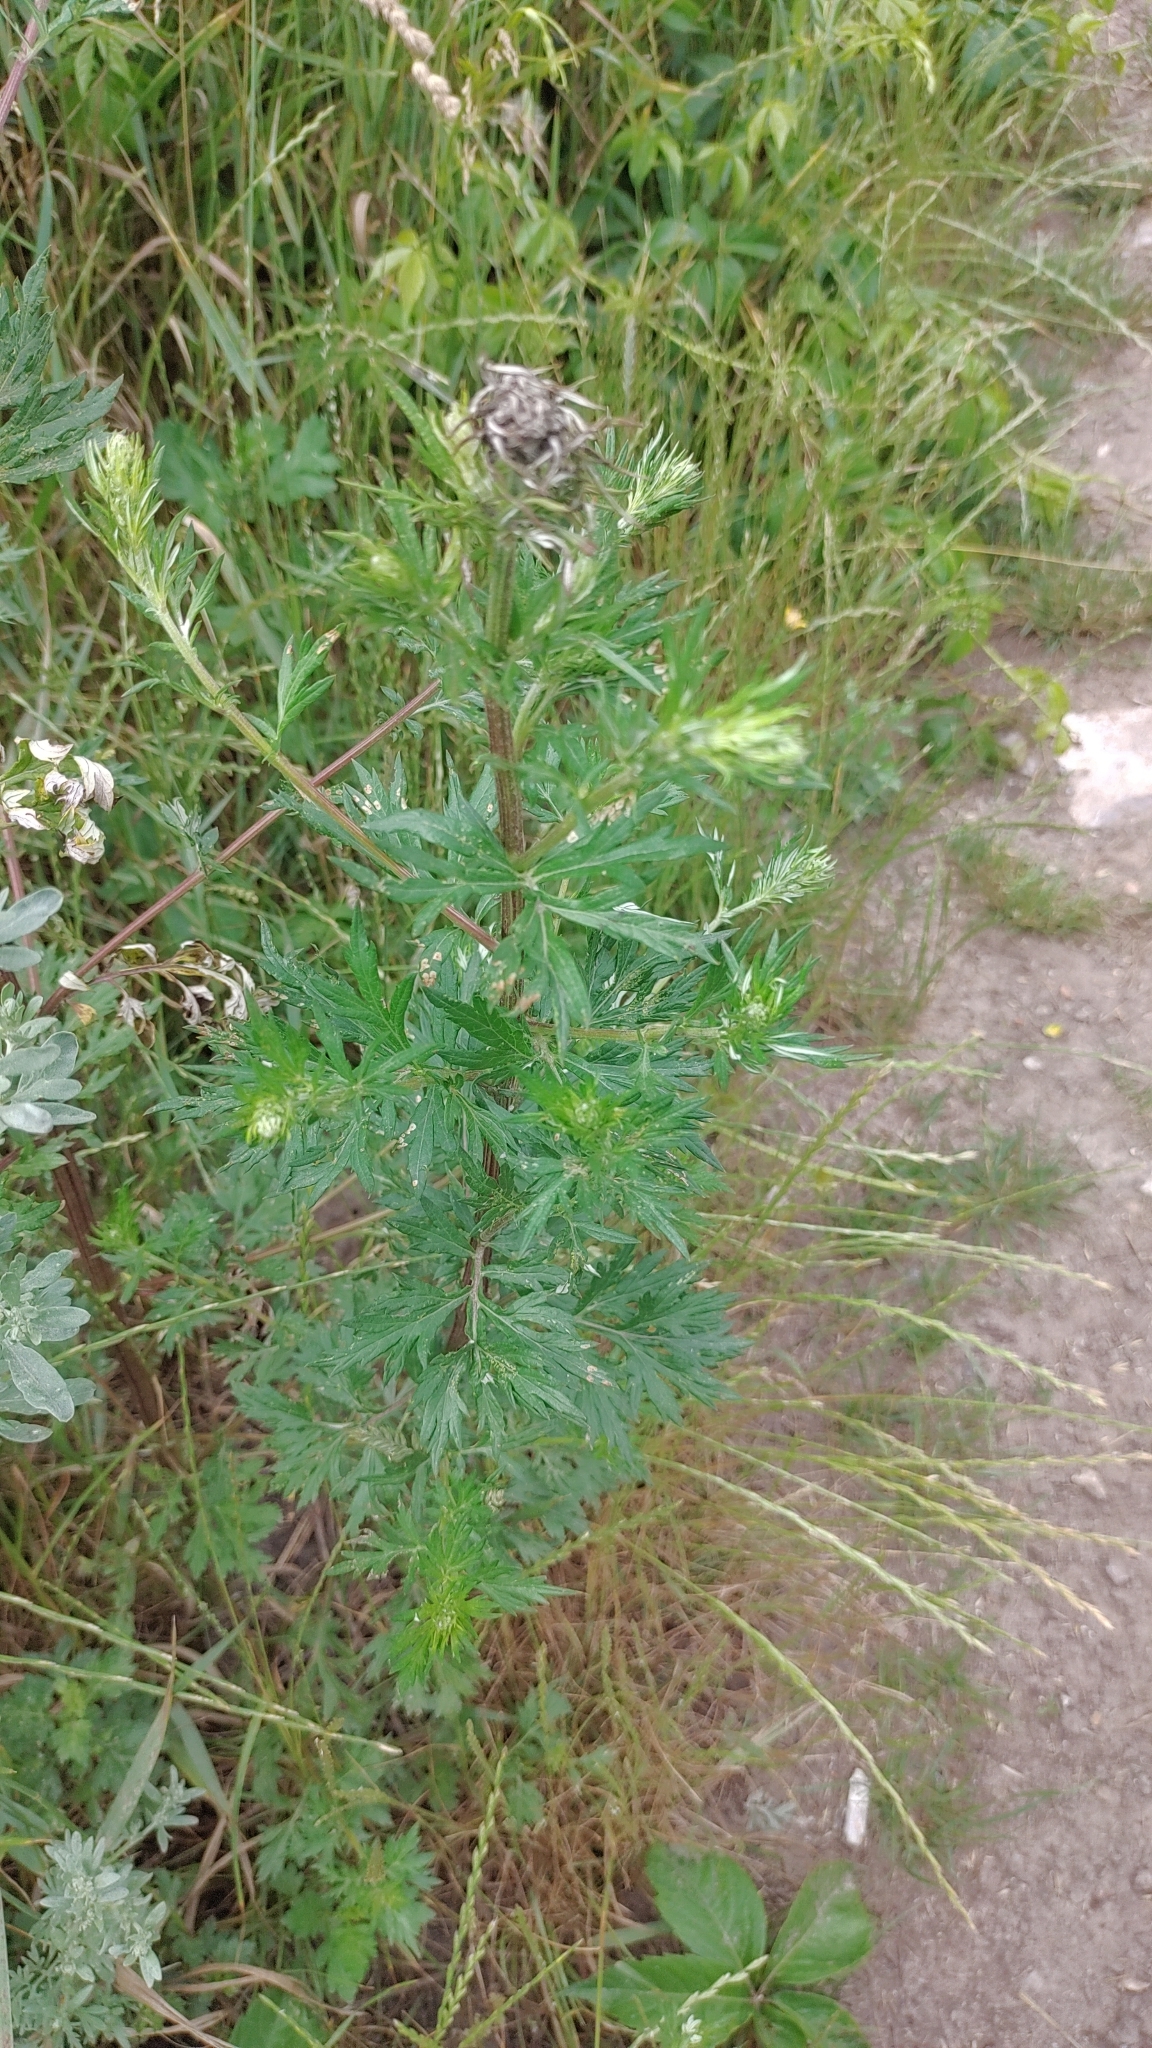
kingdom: Plantae
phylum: Tracheophyta
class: Magnoliopsida
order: Asterales
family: Asteraceae
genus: Artemisia
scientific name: Artemisia vulgaris
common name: Mugwort
